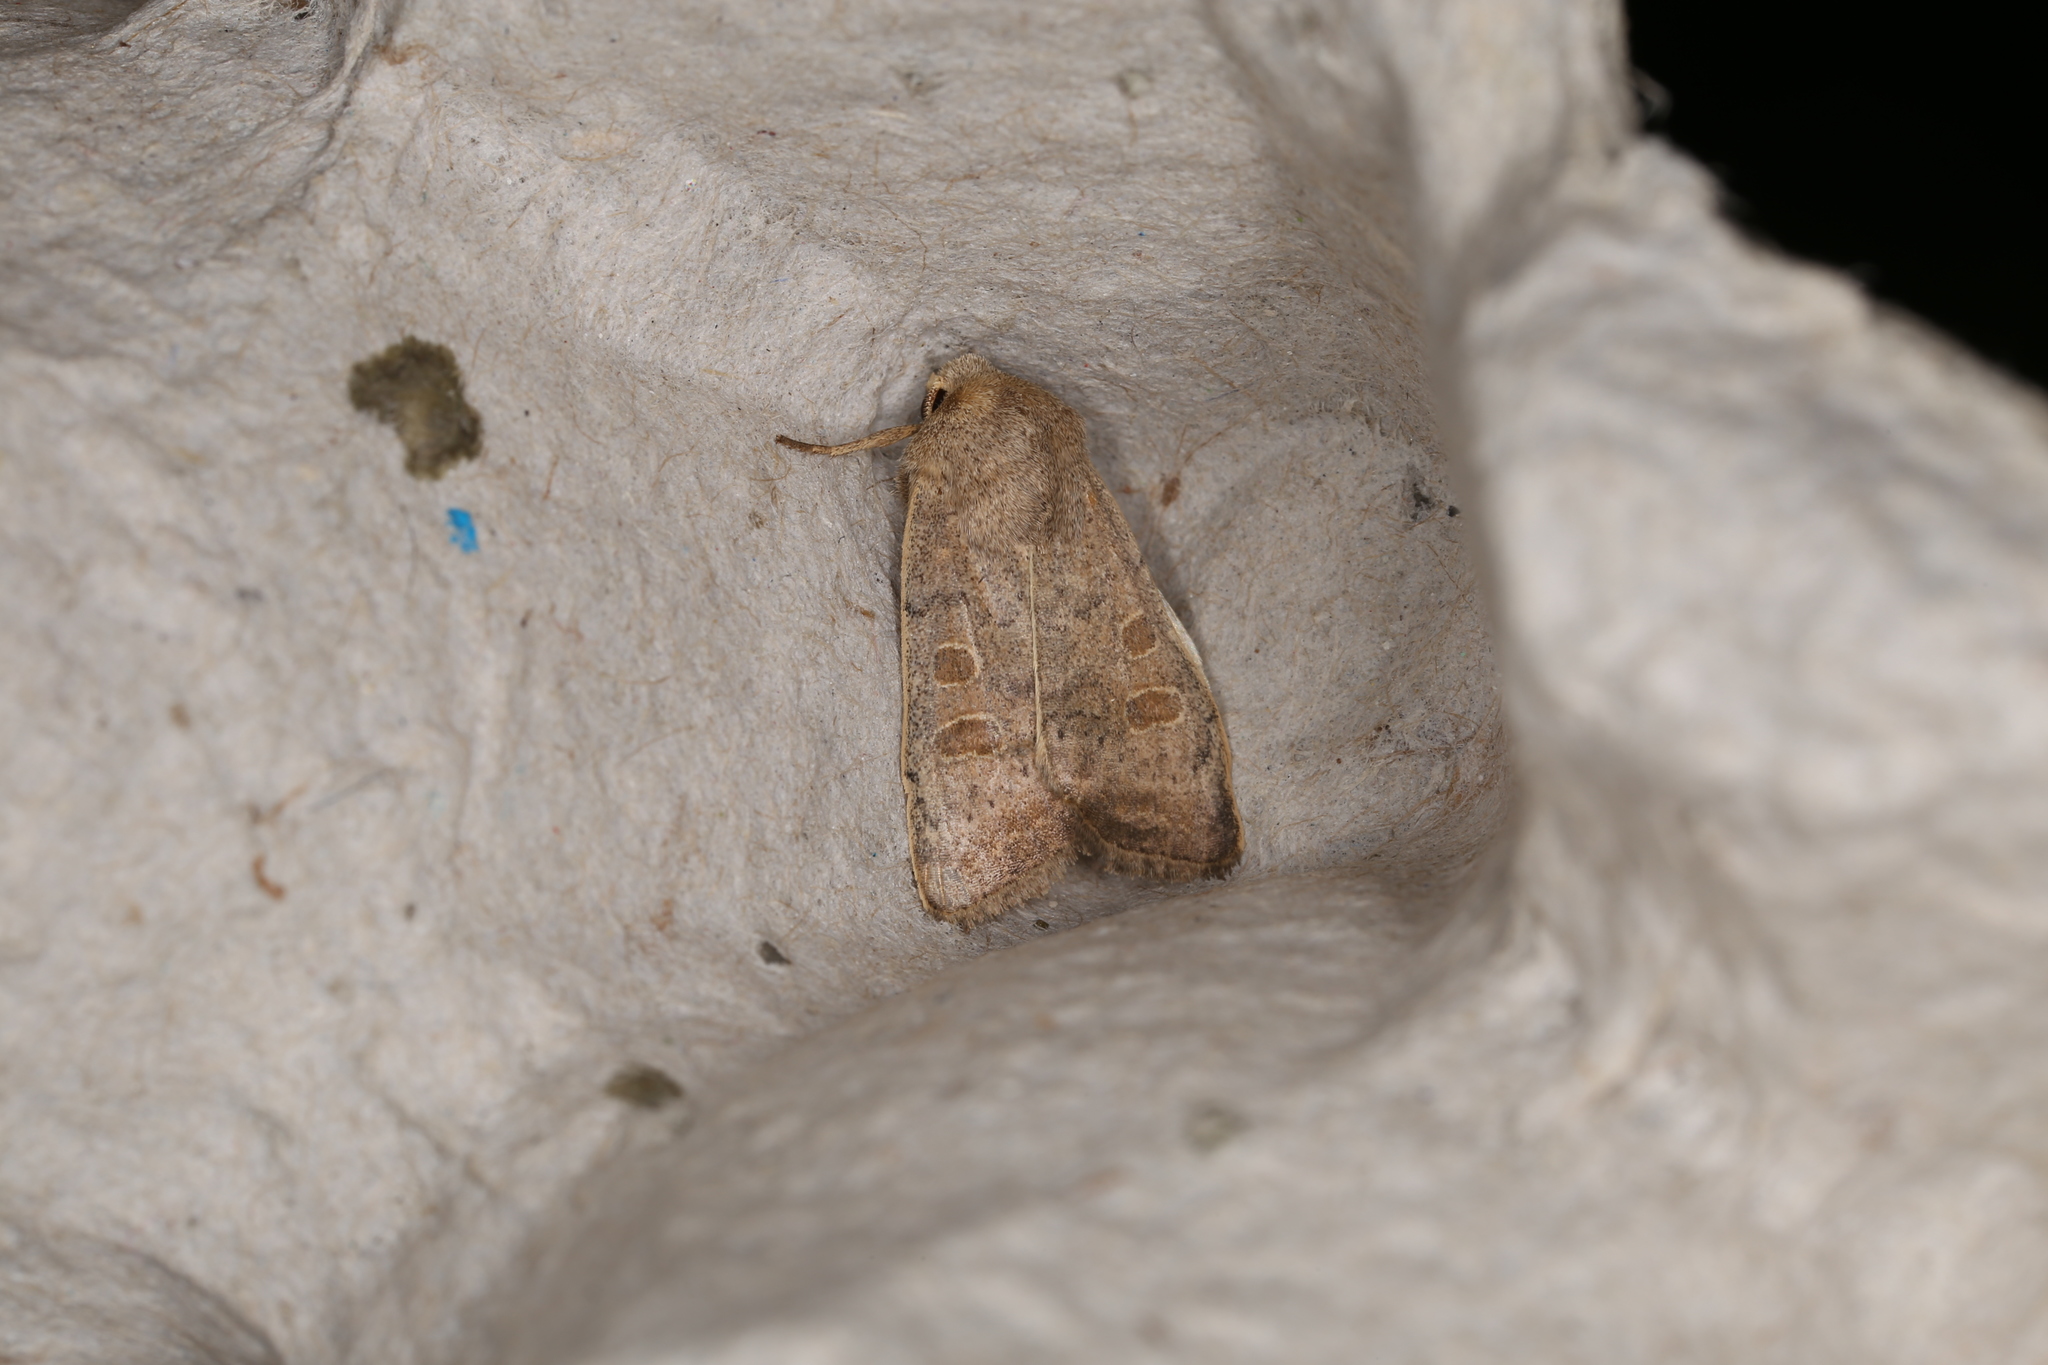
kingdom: Animalia
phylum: Arthropoda
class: Insecta
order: Lepidoptera
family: Noctuidae
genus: Hoplodrina
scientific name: Hoplodrina ambigua
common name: Vine's rustic
